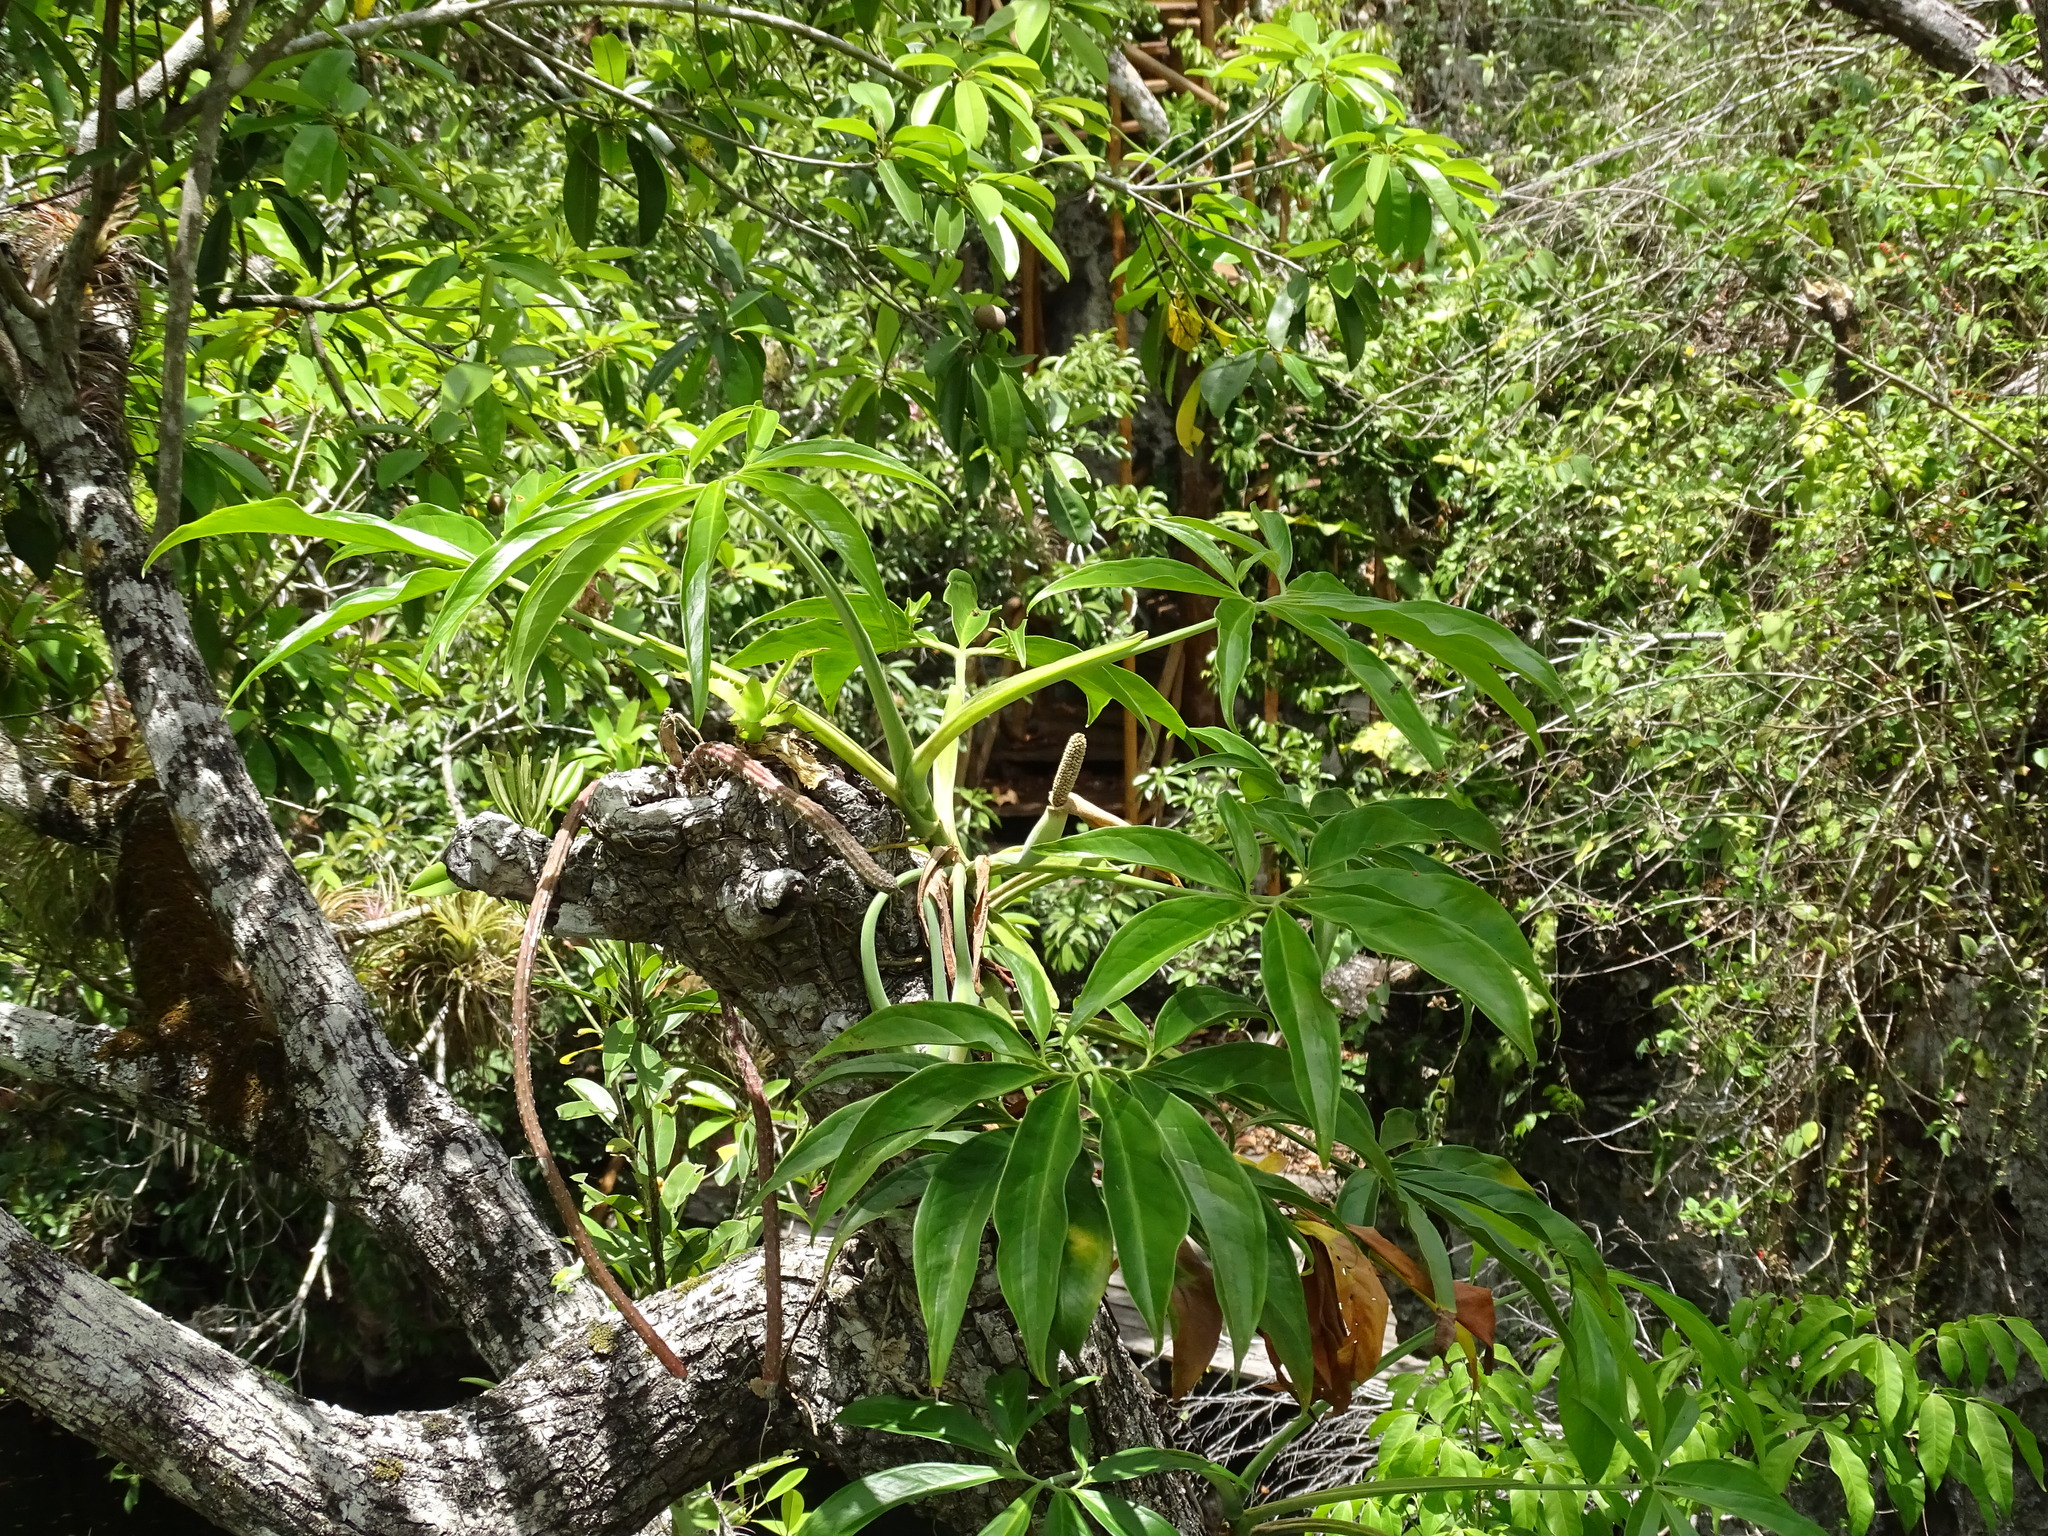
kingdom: Plantae
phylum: Tracheophyta
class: Liliopsida
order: Alismatales
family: Araceae
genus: Syngonium
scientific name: Syngonium angustatum
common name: Fivefingers
